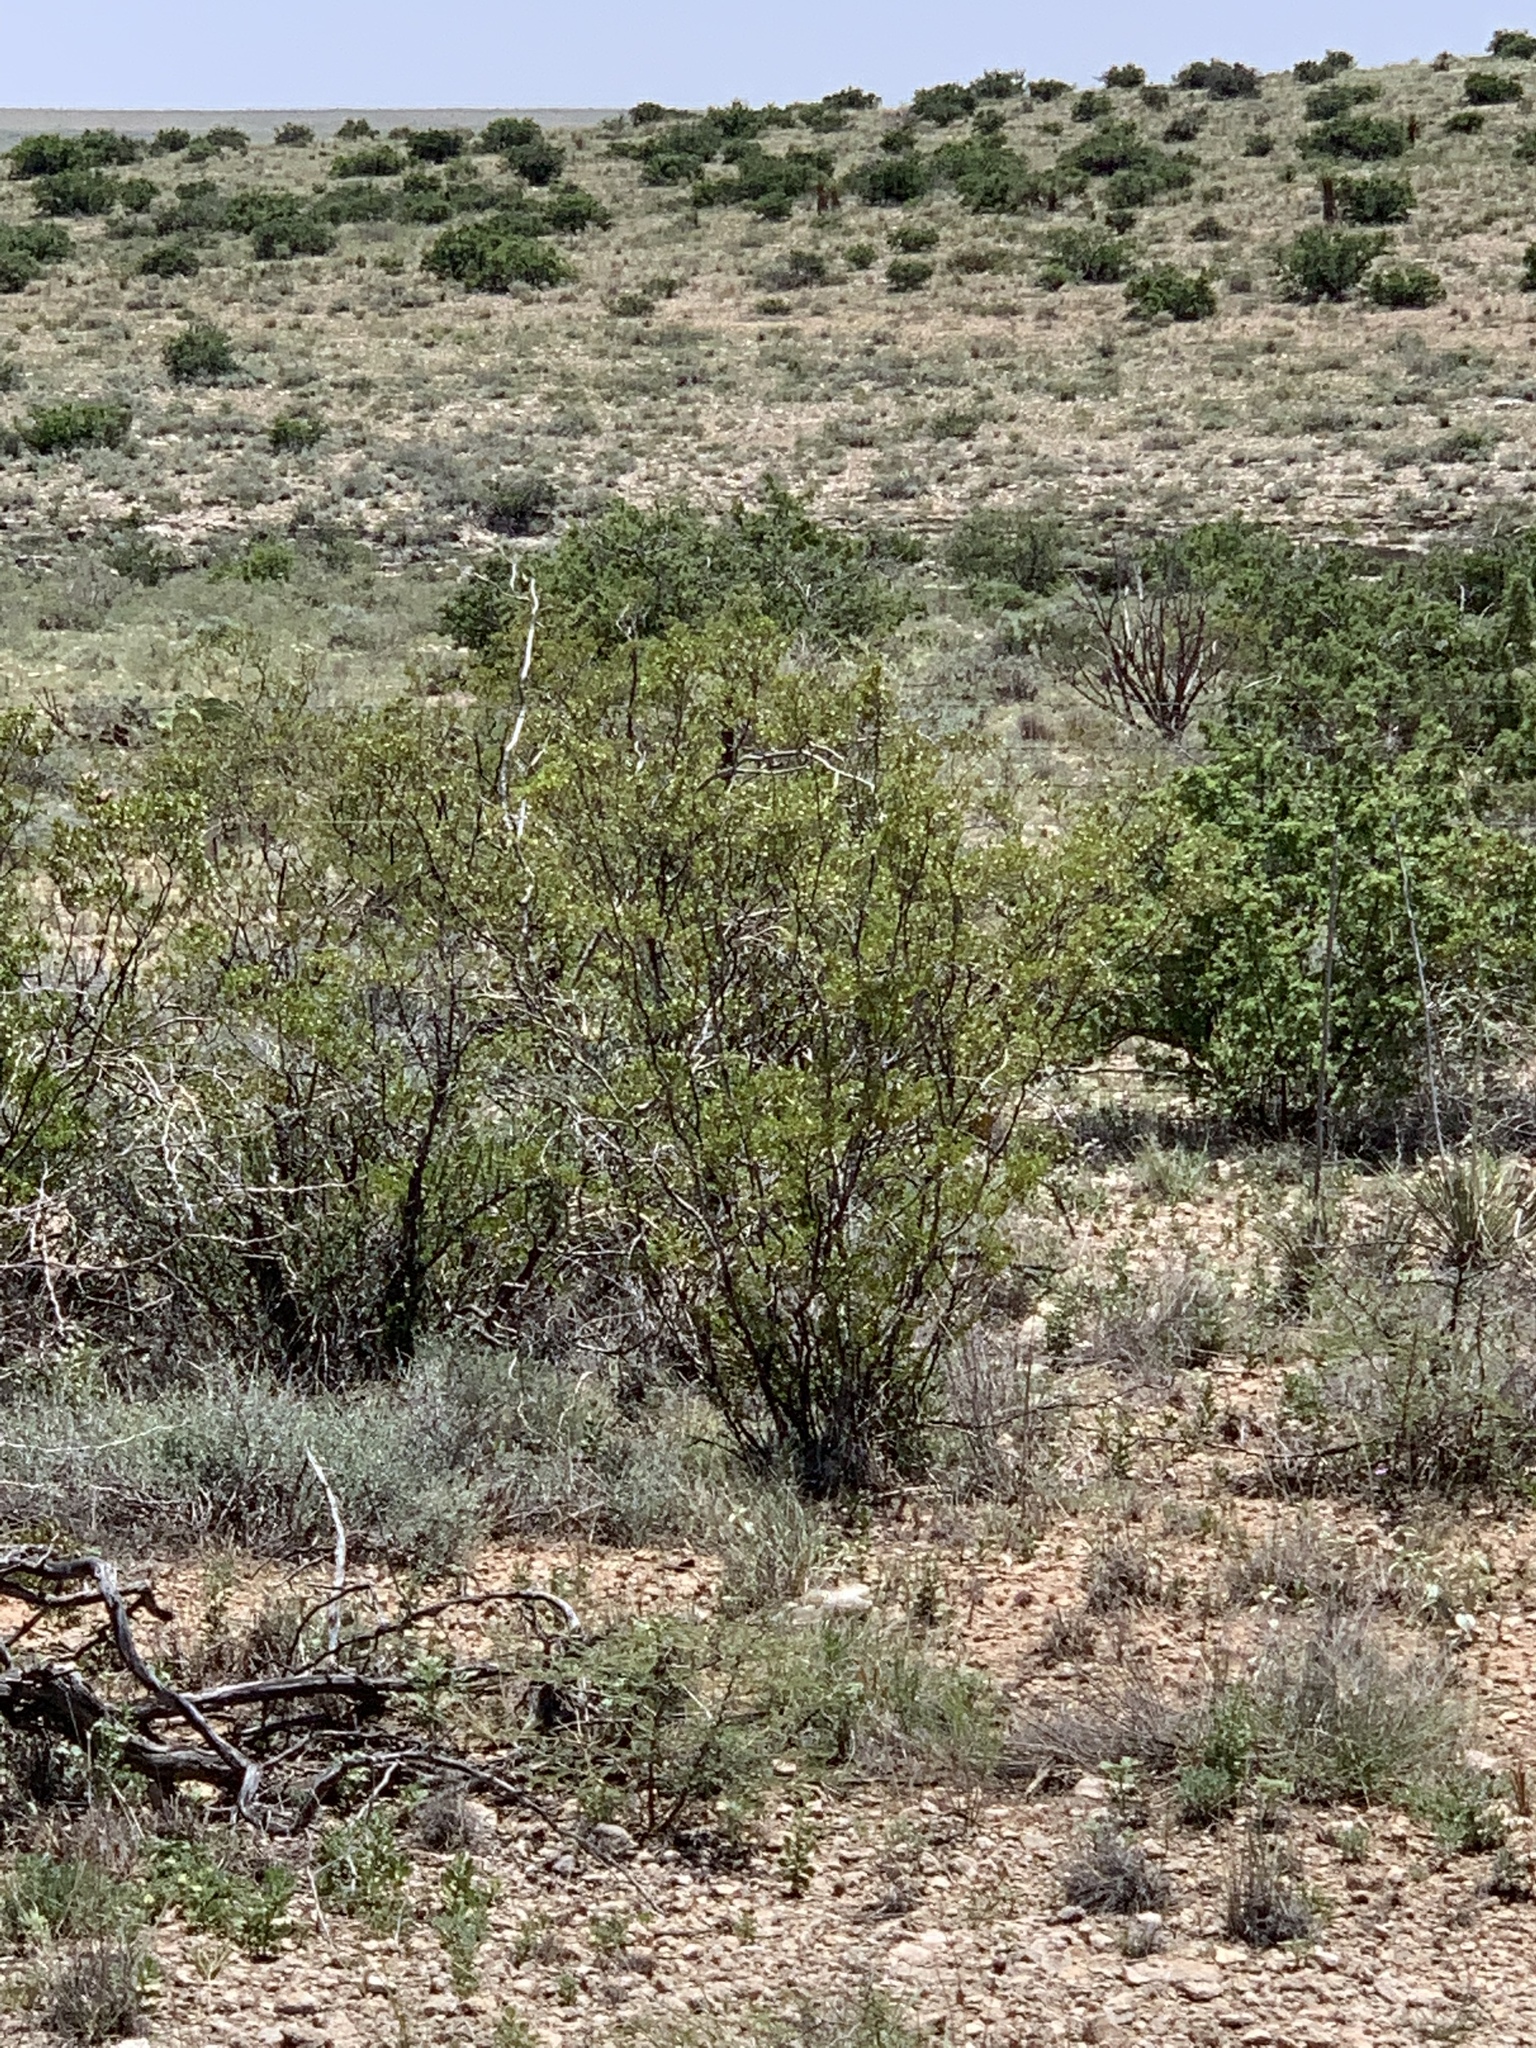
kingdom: Plantae
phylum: Tracheophyta
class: Magnoliopsida
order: Zygophyllales
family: Zygophyllaceae
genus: Larrea
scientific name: Larrea tridentata
